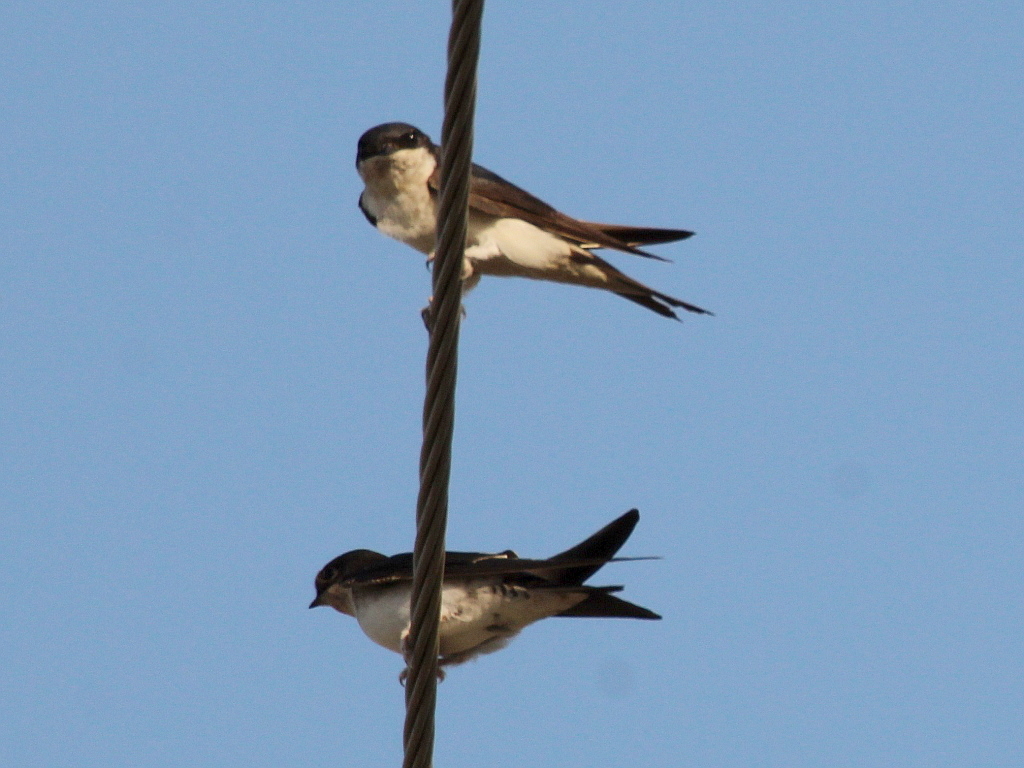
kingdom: Animalia
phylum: Chordata
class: Aves
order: Passeriformes
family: Hirundinidae
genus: Delichon
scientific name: Delichon urbicum
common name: Common house martin
